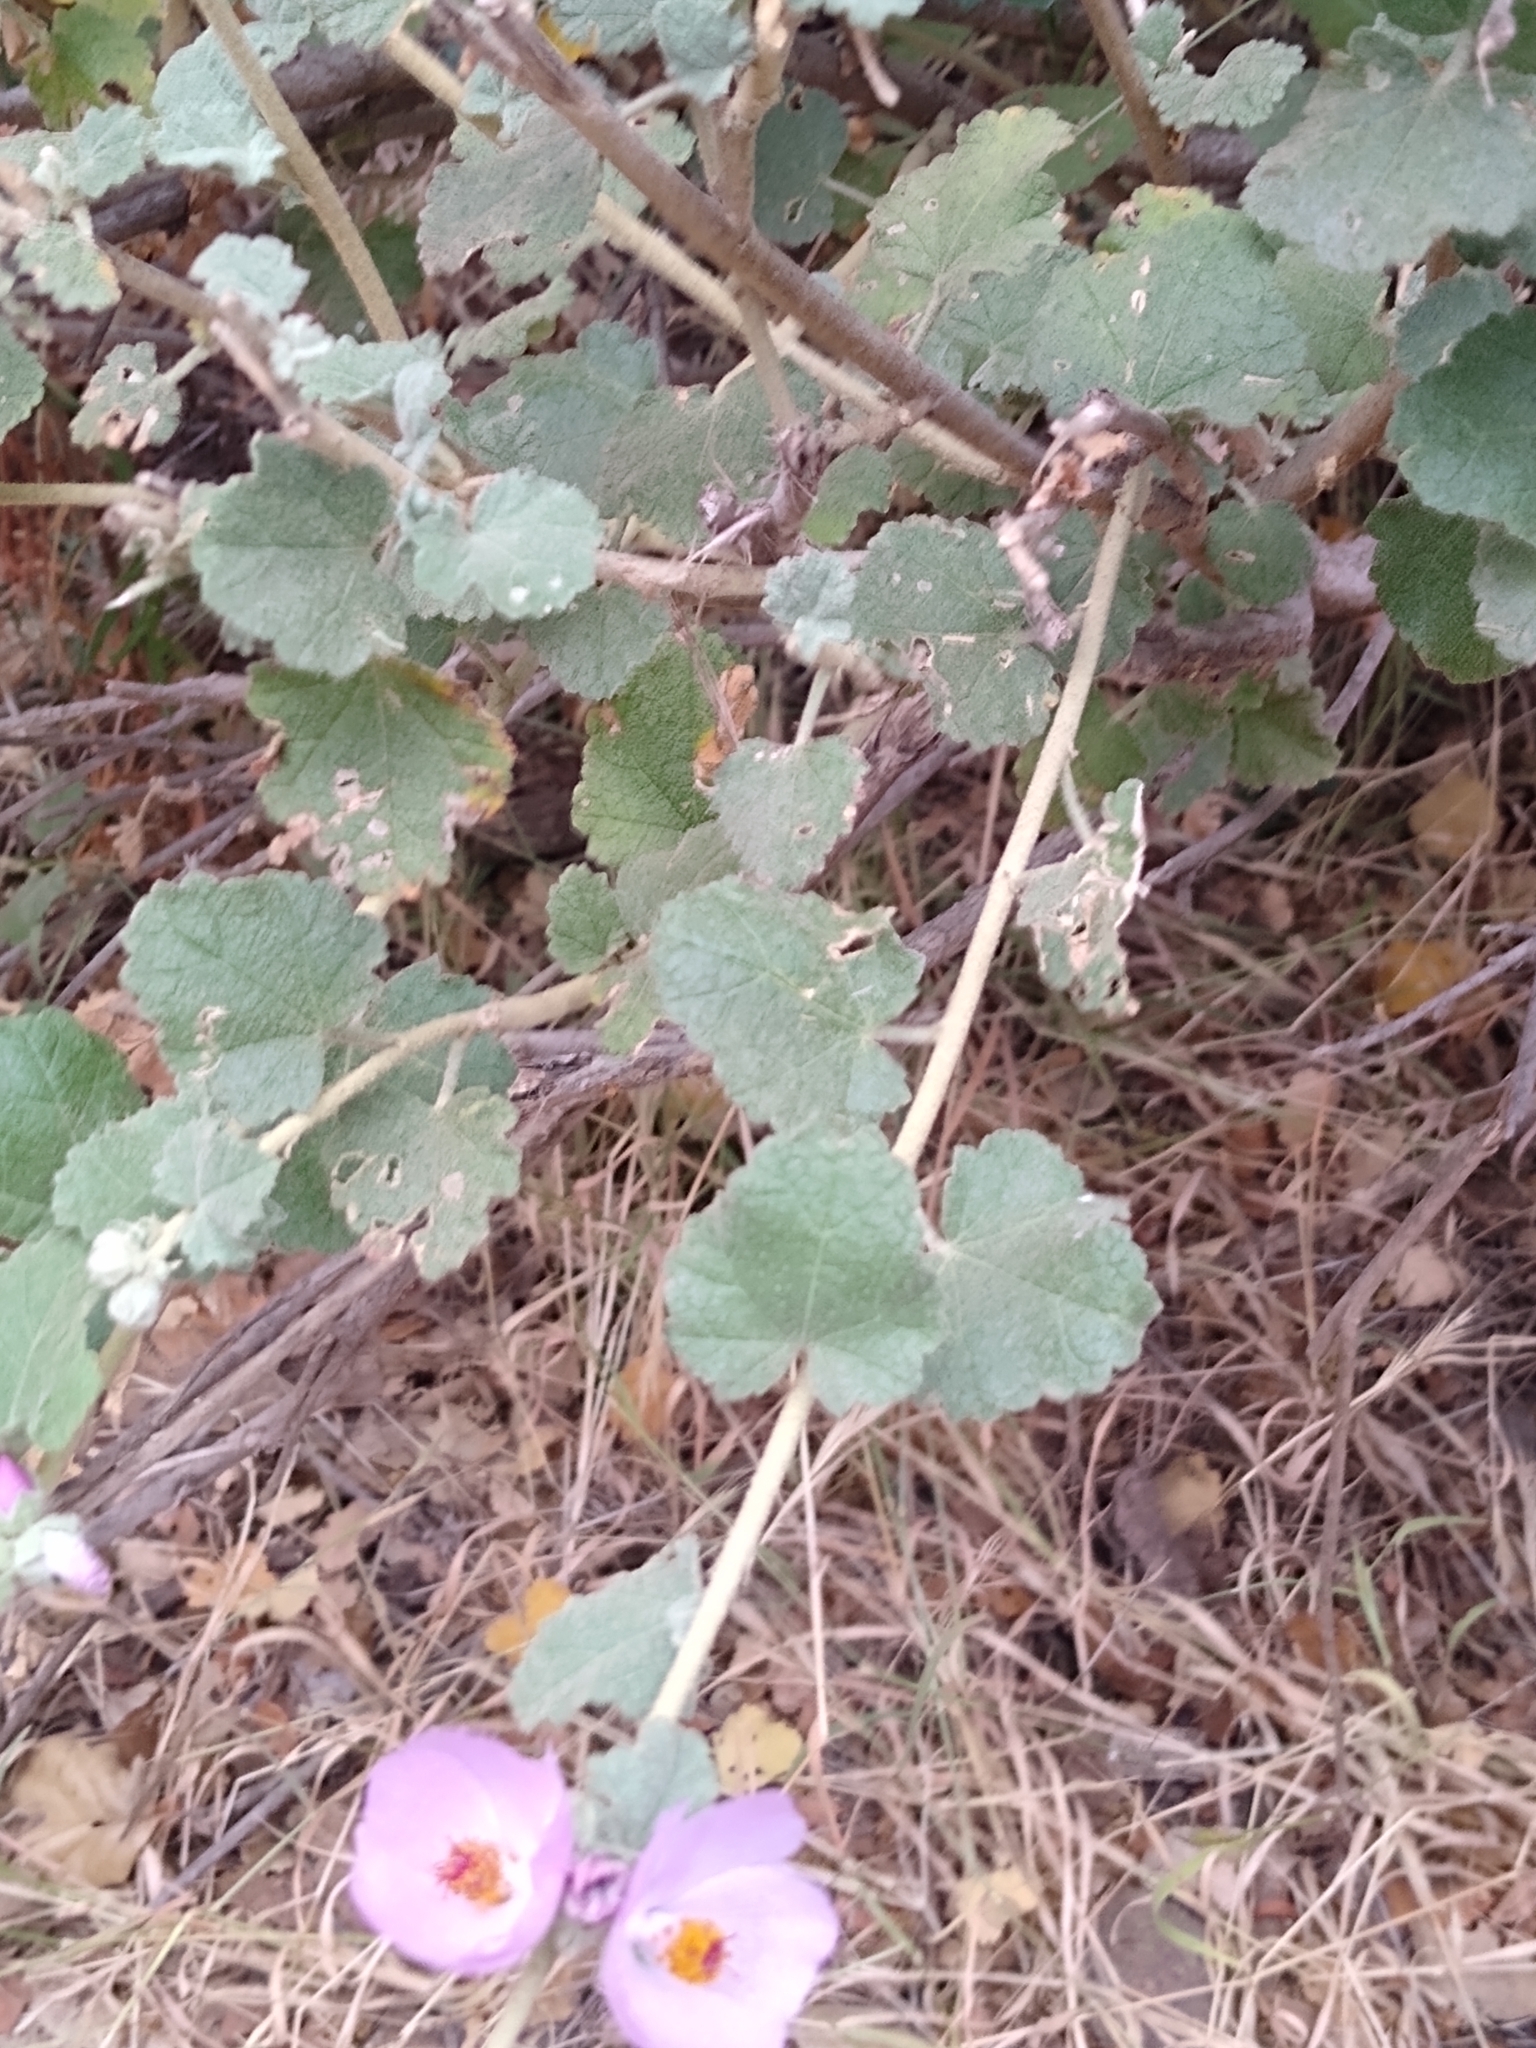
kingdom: Plantae
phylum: Tracheophyta
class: Magnoliopsida
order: Malvales
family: Malvaceae
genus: Malacothamnus
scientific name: Malacothamnus fasciculatus
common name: Sant cruz island bush-mallow
